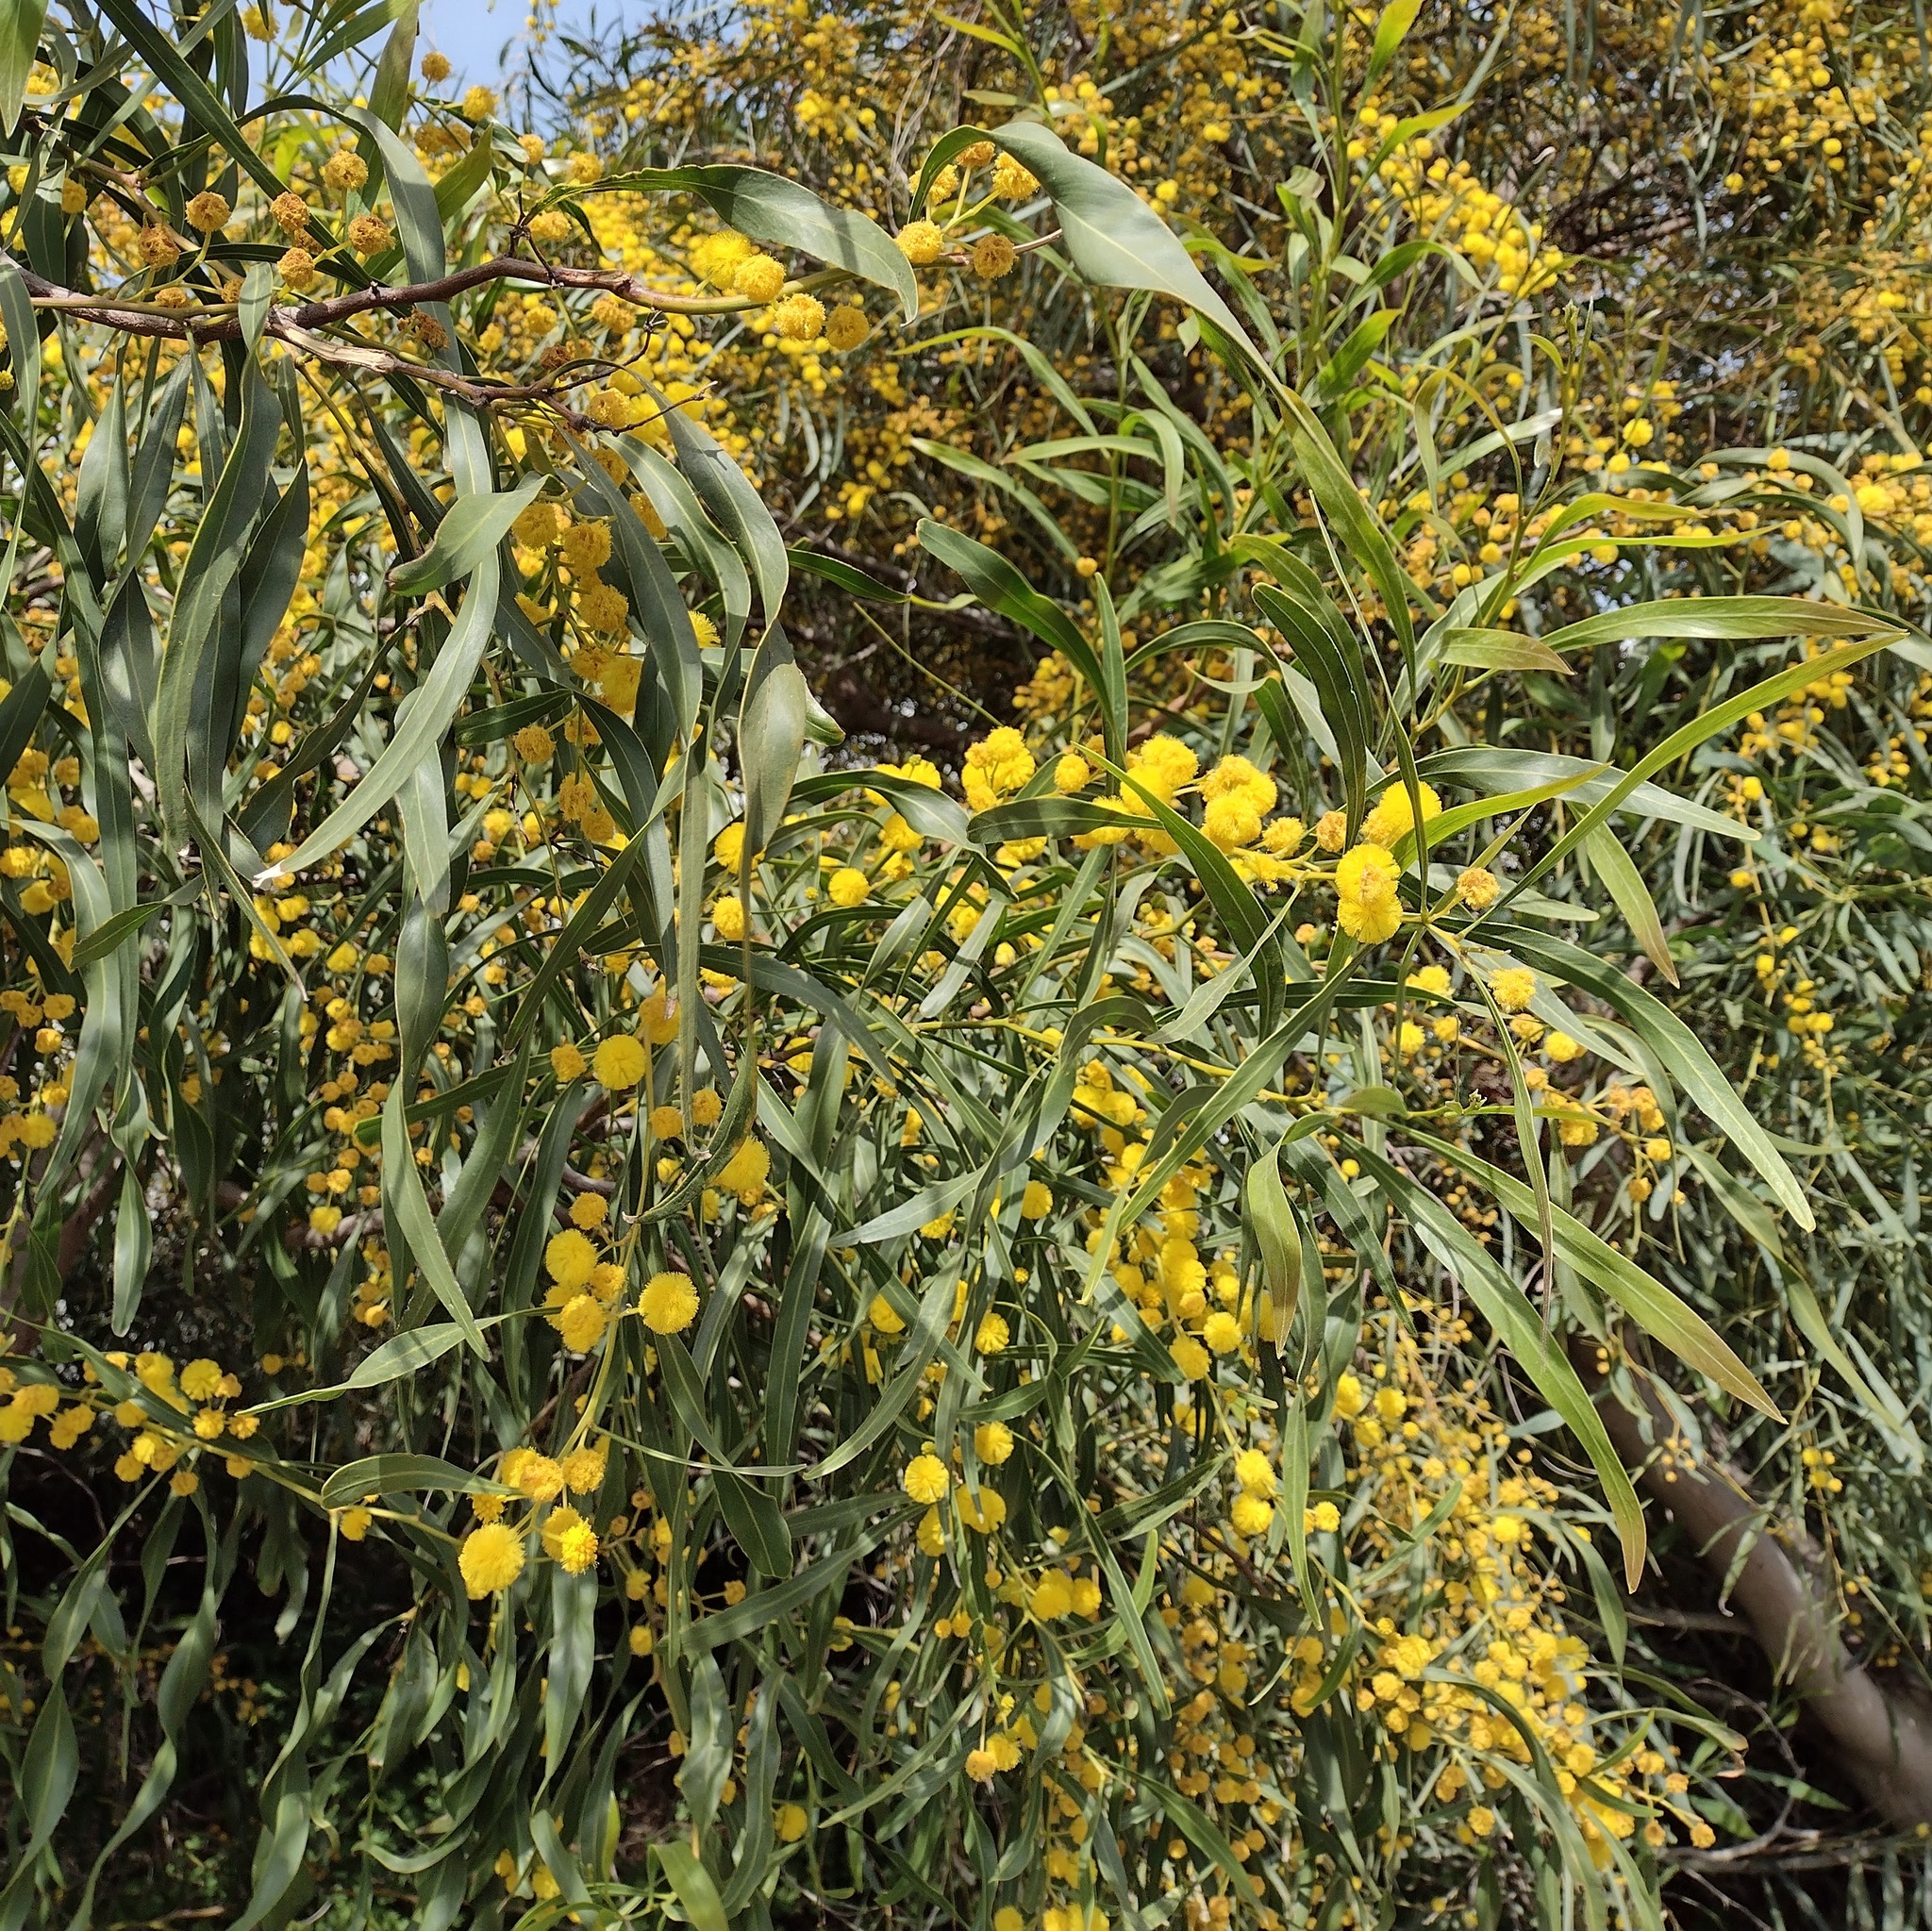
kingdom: Plantae
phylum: Tracheophyta
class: Magnoliopsida
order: Fabales
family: Fabaceae
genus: Acacia
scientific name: Acacia saligna
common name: Orange wattle
